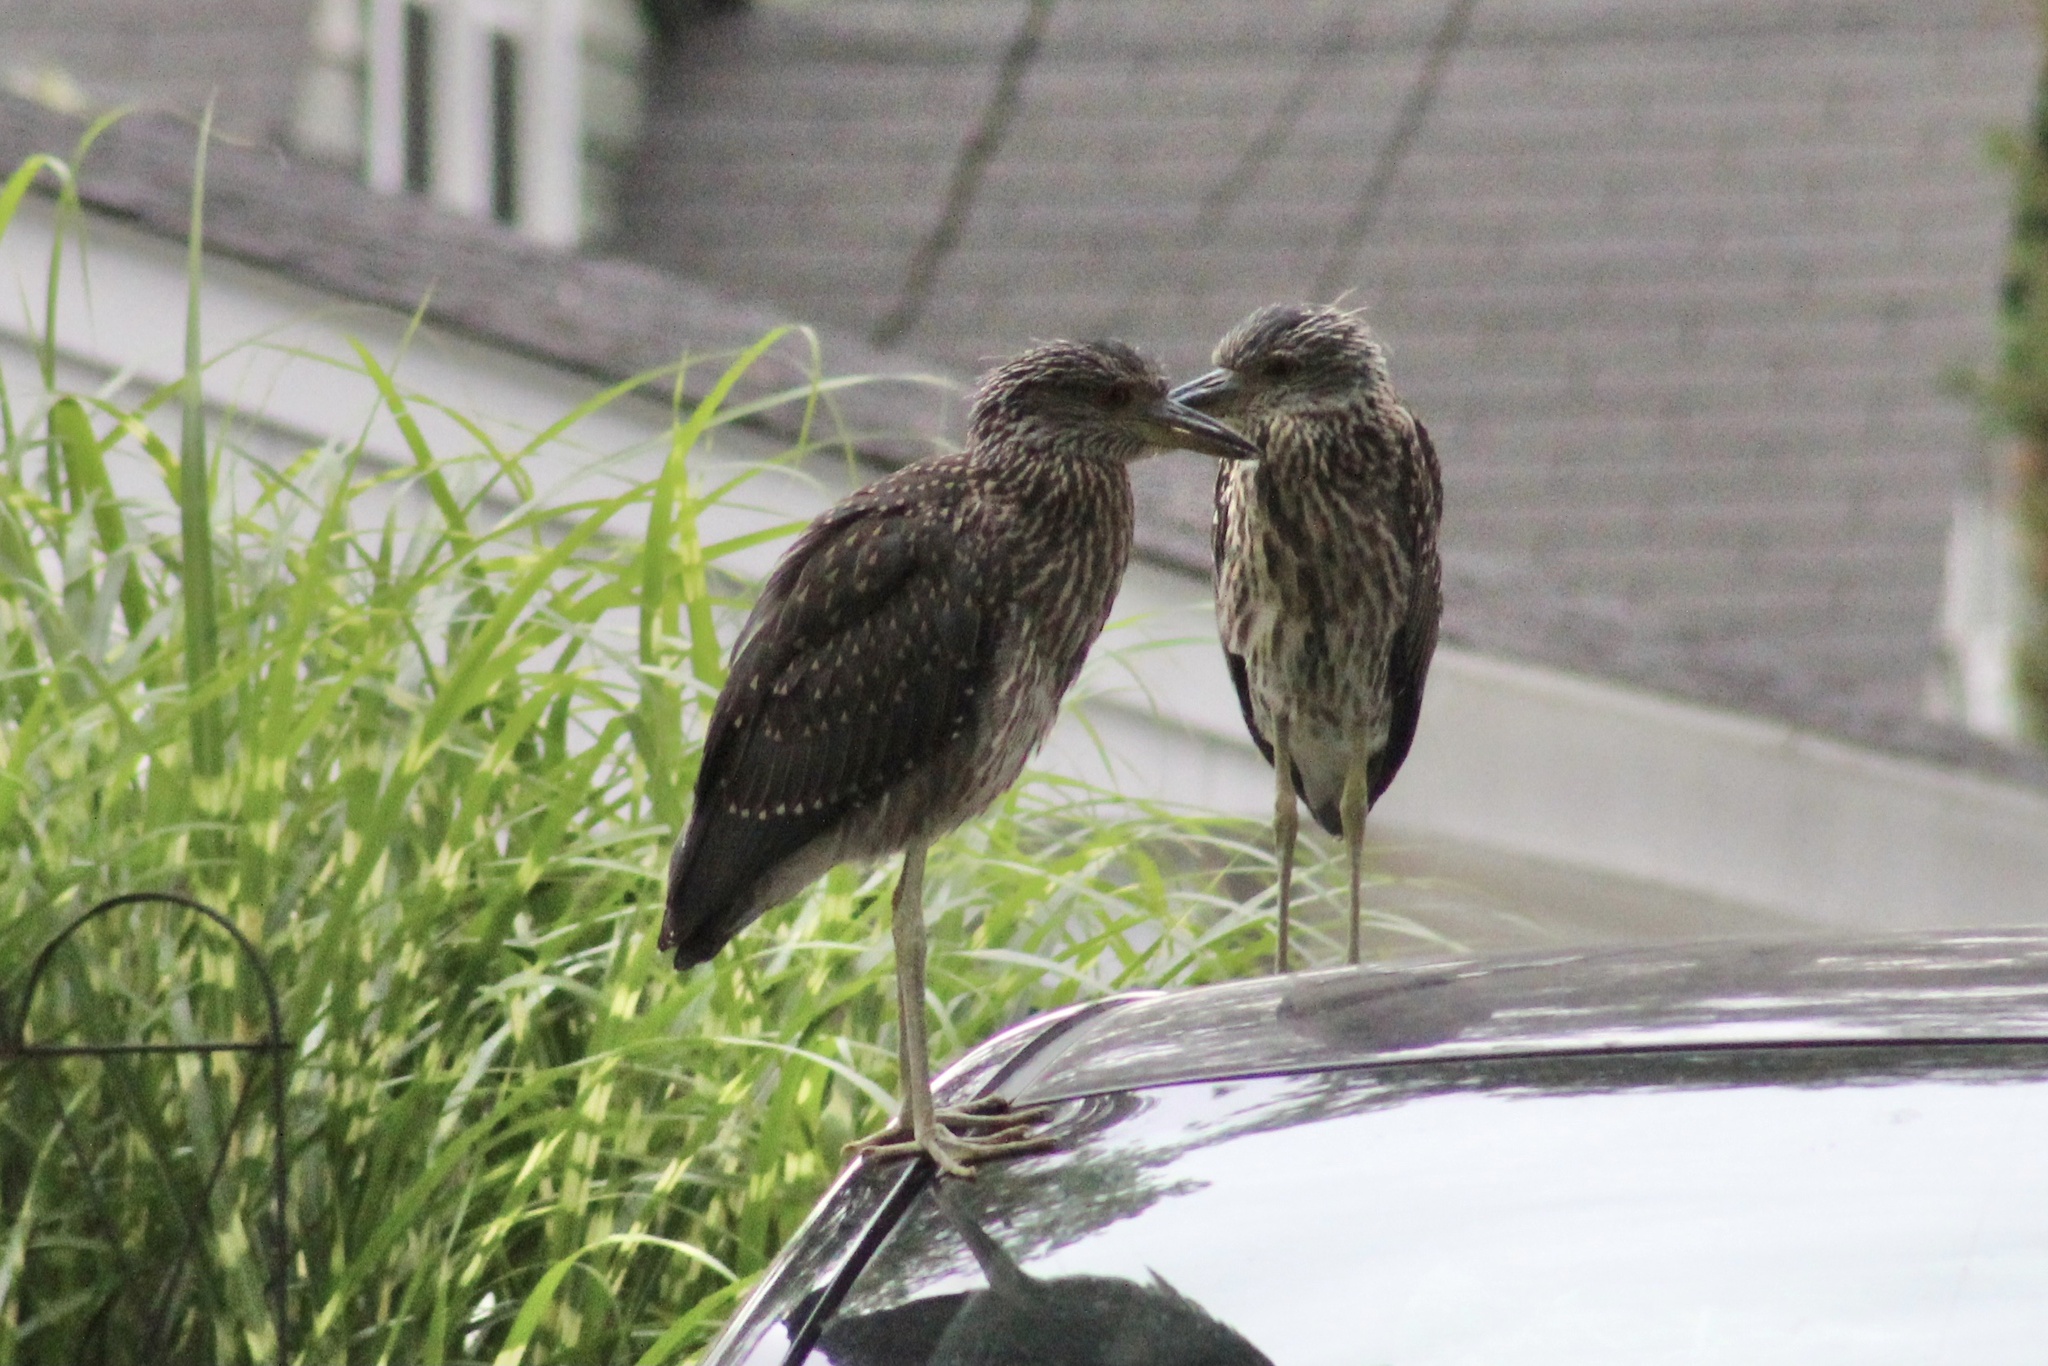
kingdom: Animalia
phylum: Chordata
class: Aves
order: Pelecaniformes
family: Ardeidae
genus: Nyctanassa
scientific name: Nyctanassa violacea
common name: Yellow-crowned night heron
